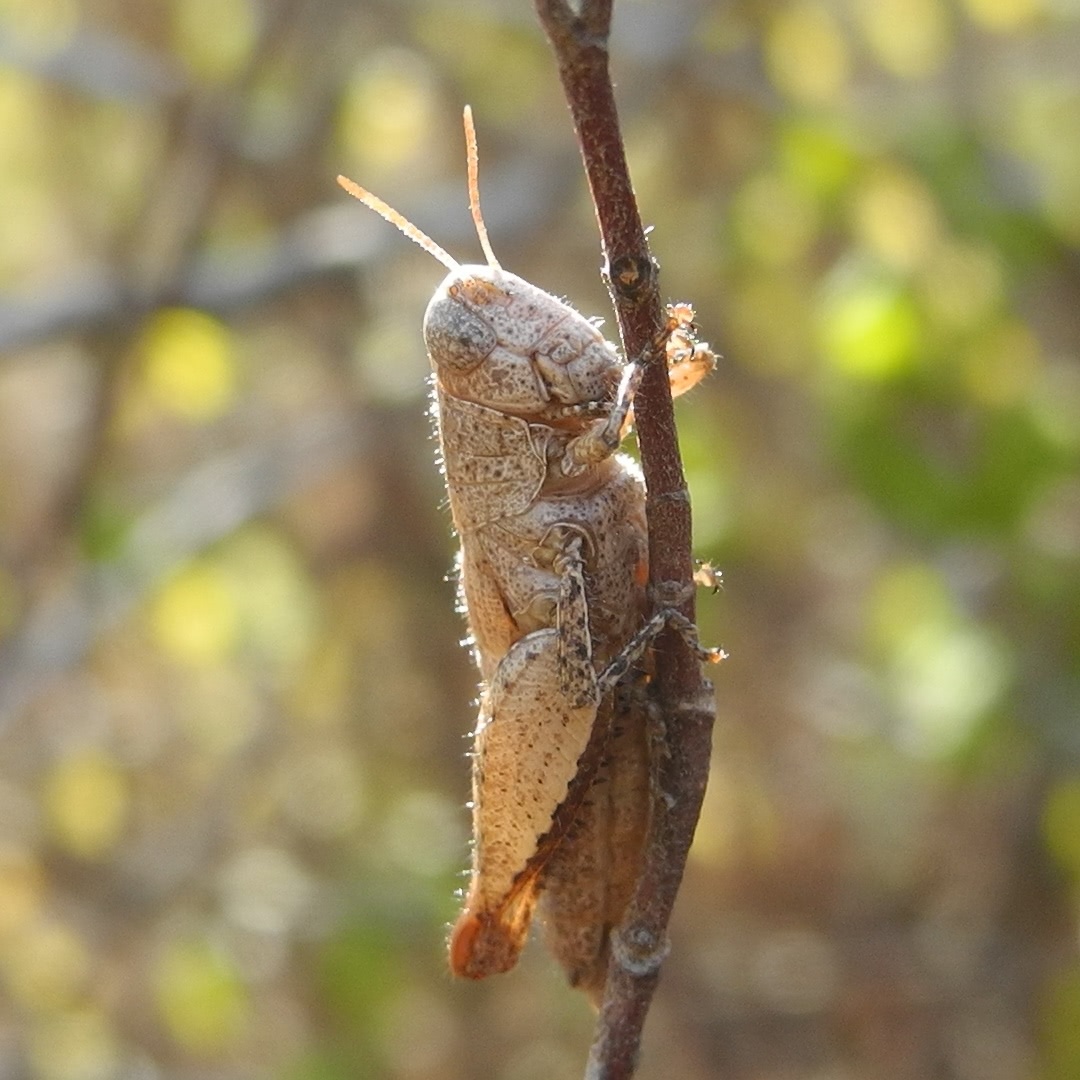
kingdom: Animalia
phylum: Arthropoda
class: Insecta
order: Orthoptera
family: Acrididae
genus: Pezotettix
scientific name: Pezotettix giornae
